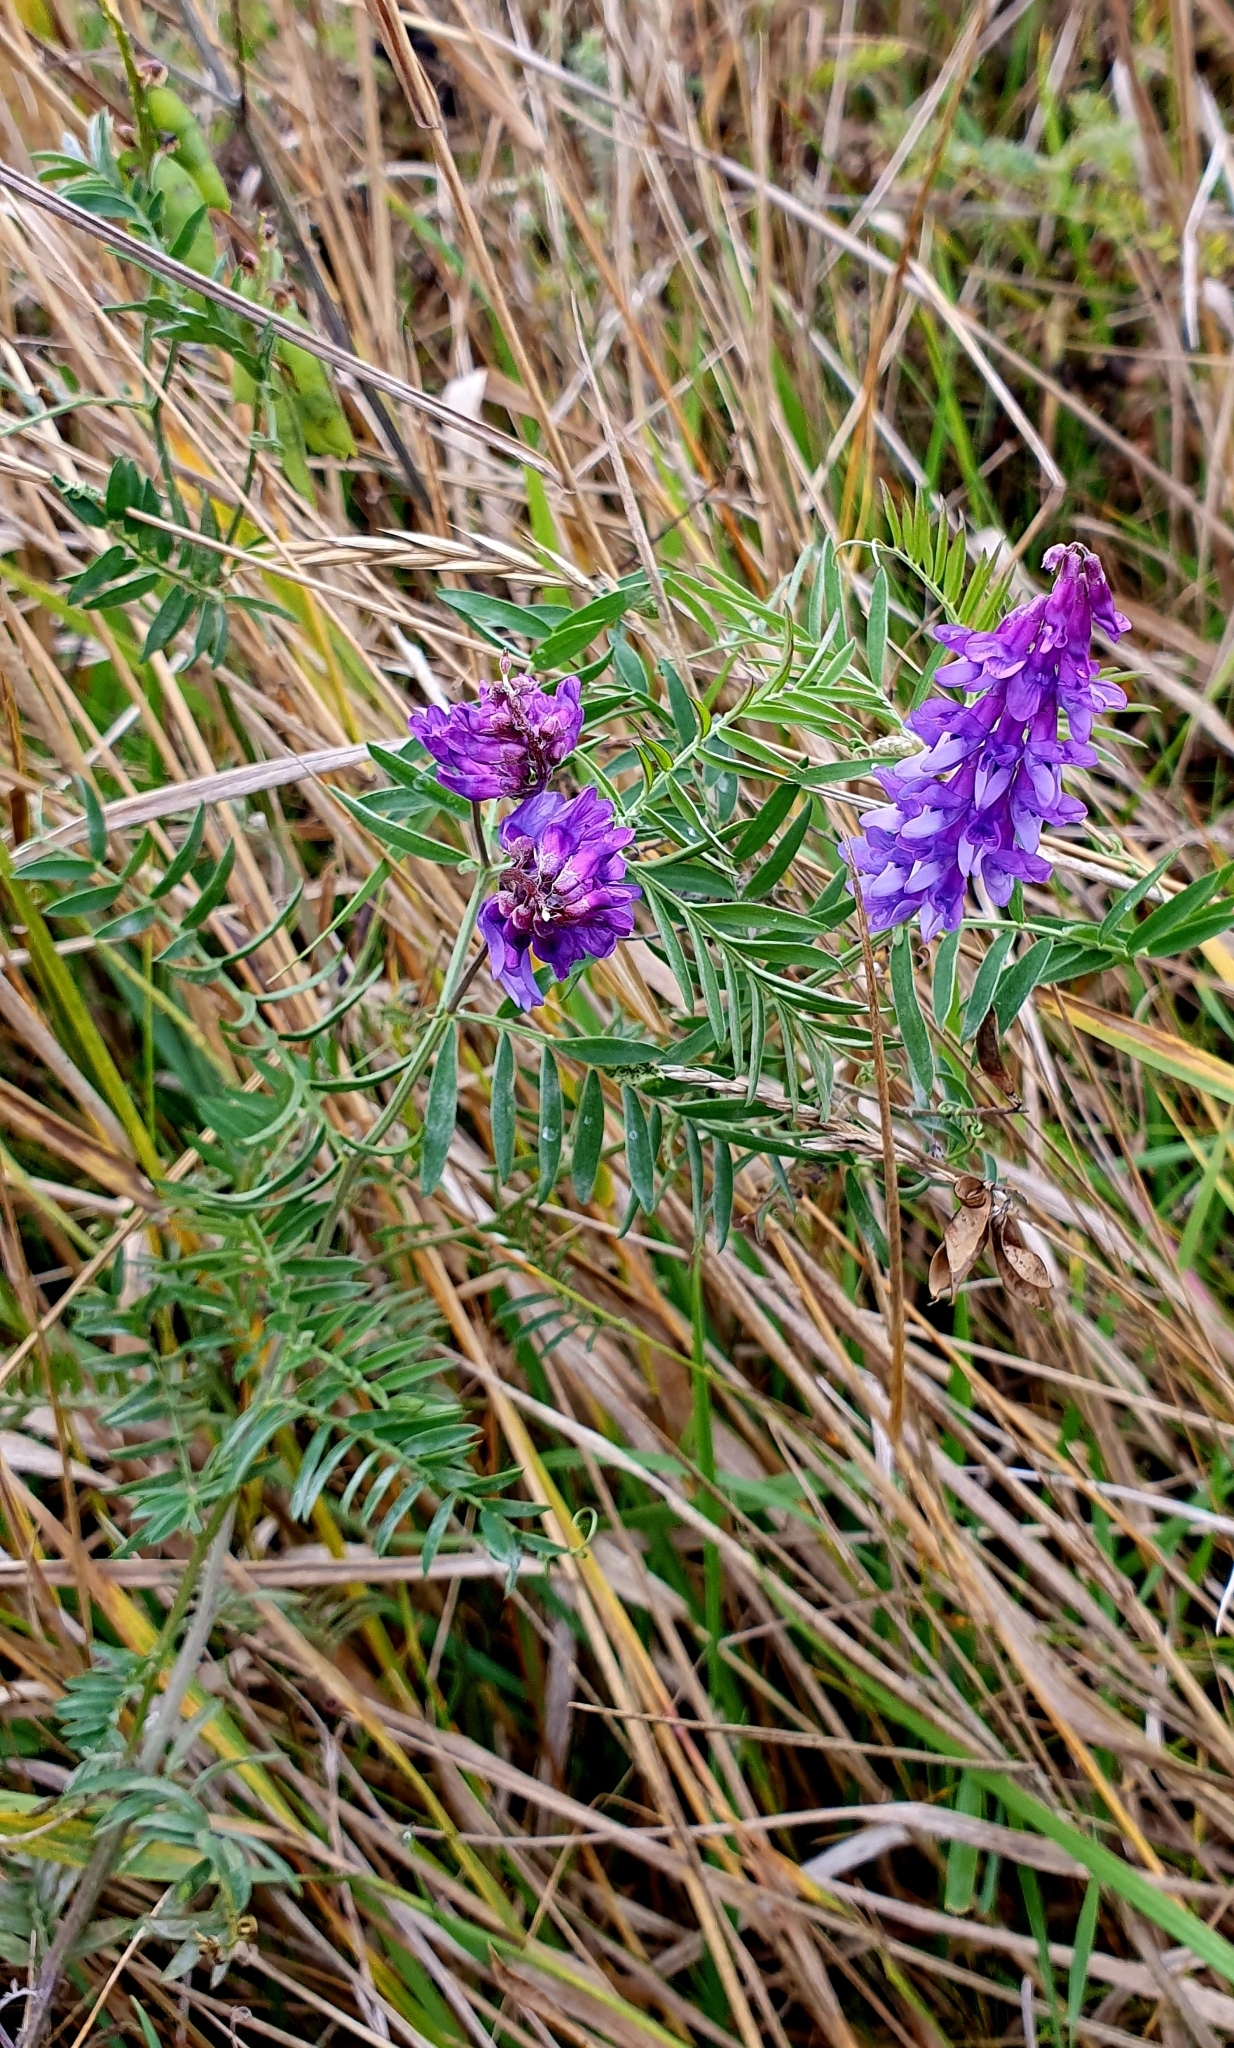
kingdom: Plantae
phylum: Tracheophyta
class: Magnoliopsida
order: Fabales
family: Fabaceae
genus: Vicia
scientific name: Vicia cracca
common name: Bird vetch
